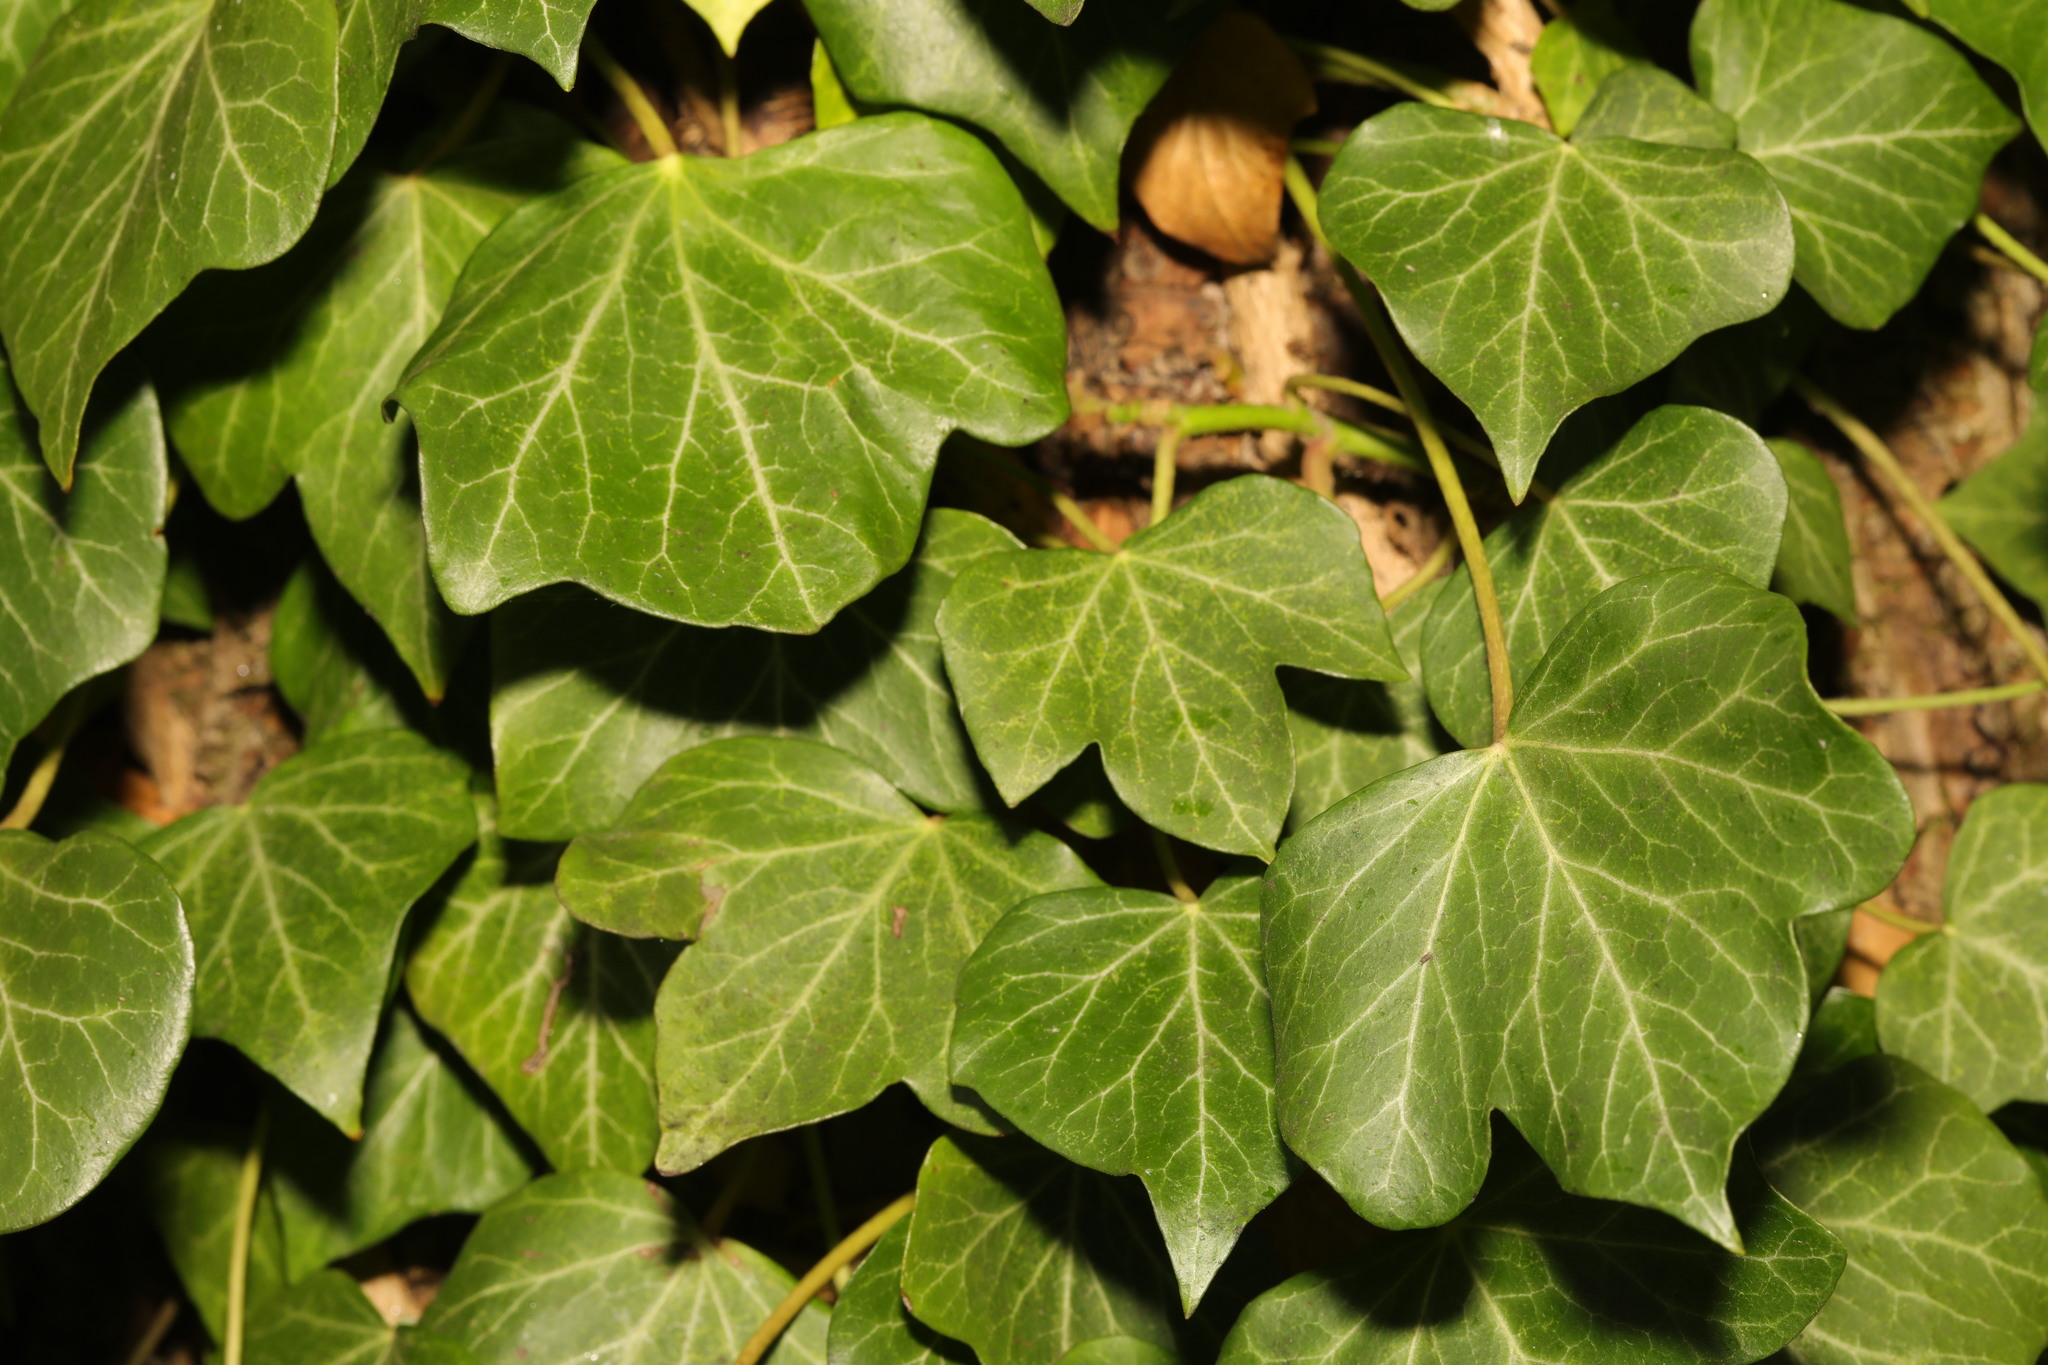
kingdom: Plantae
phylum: Tracheophyta
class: Magnoliopsida
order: Apiales
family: Araliaceae
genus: Hedera
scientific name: Hedera helix
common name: Ivy
